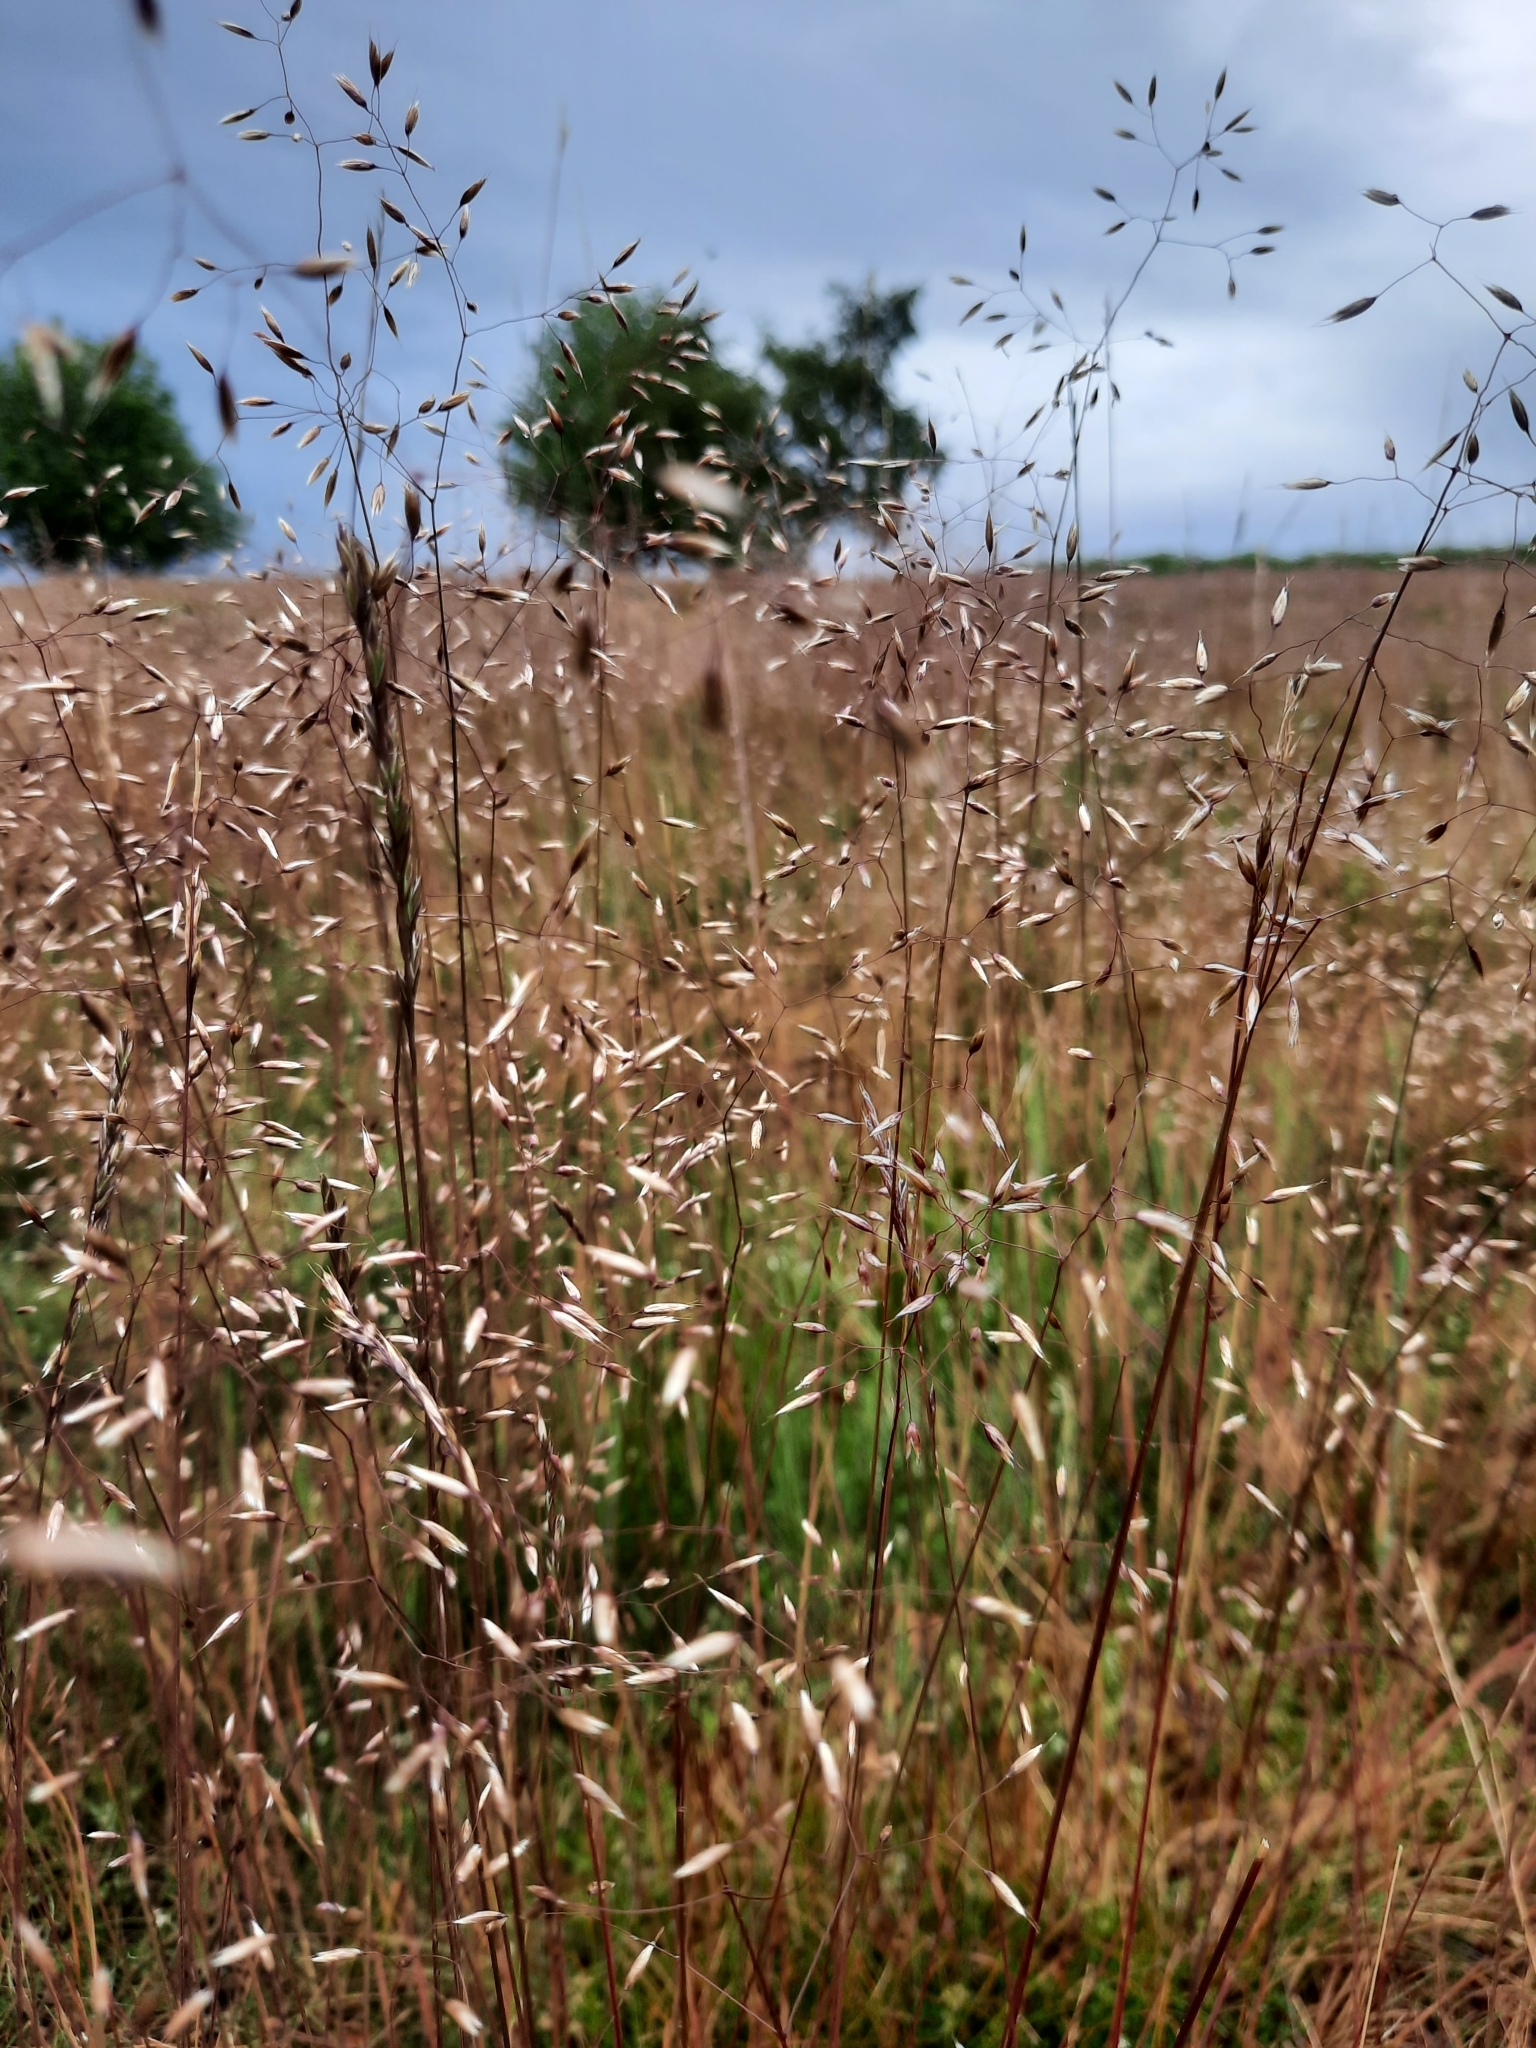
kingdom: Plantae
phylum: Tracheophyta
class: Liliopsida
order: Poales
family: Poaceae
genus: Avenella
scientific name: Avenella flexuosa
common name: Wavy hairgrass
